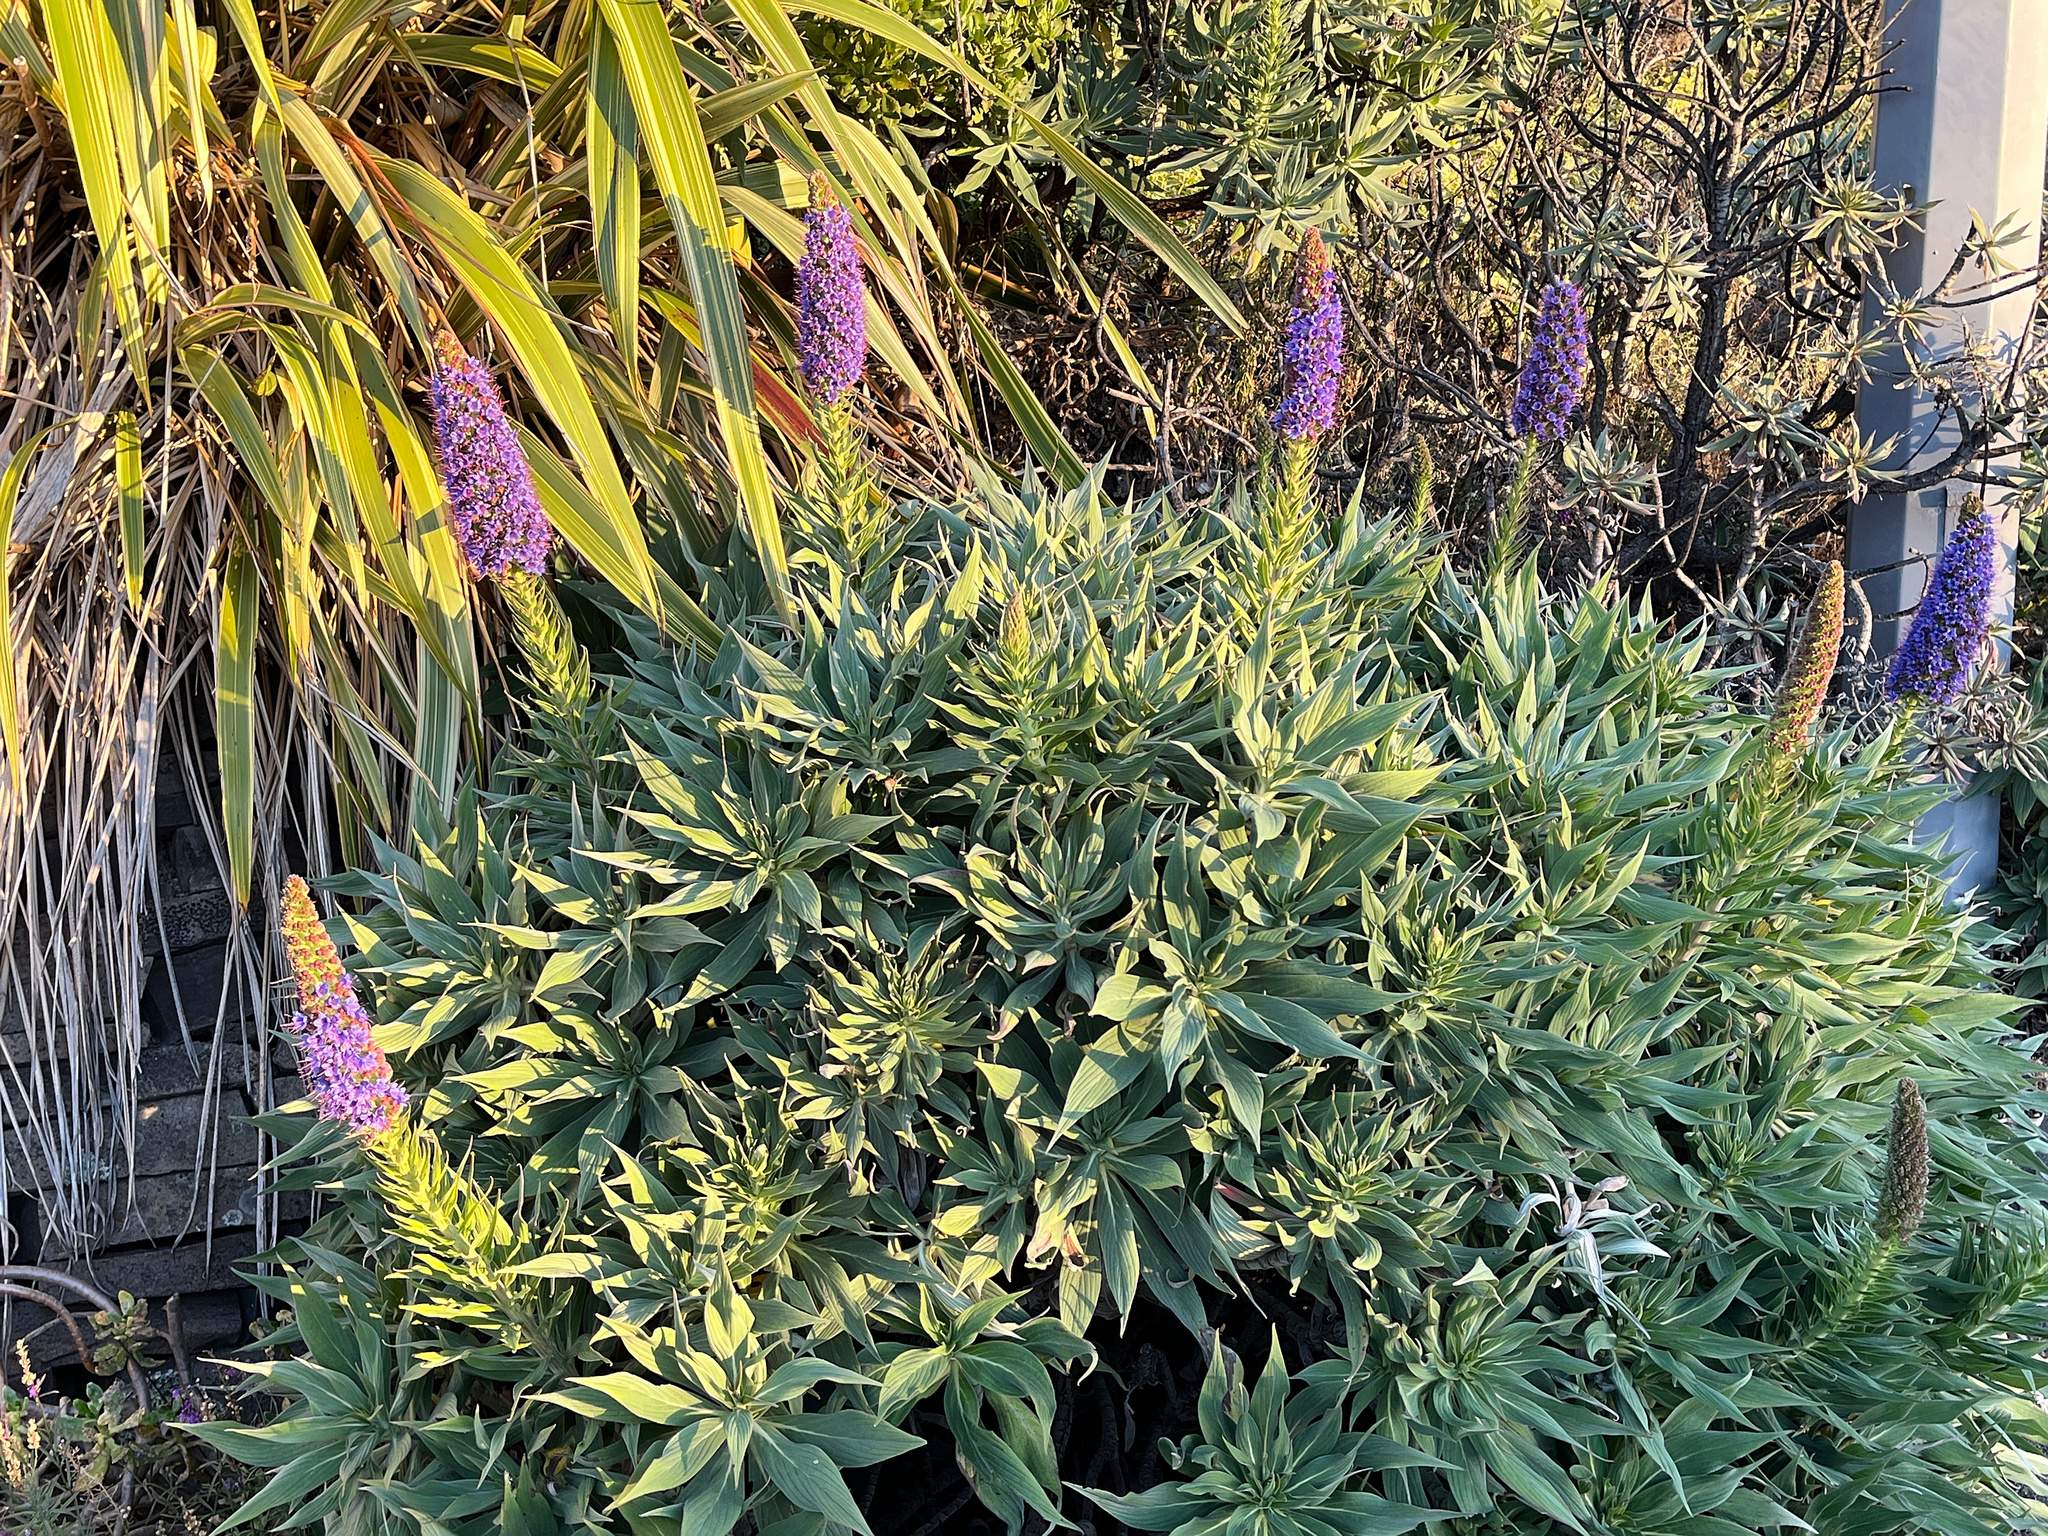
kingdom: Plantae
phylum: Tracheophyta
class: Magnoliopsida
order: Boraginales
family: Boraginaceae
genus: Echium
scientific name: Echium candicans
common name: Pride of madeira
